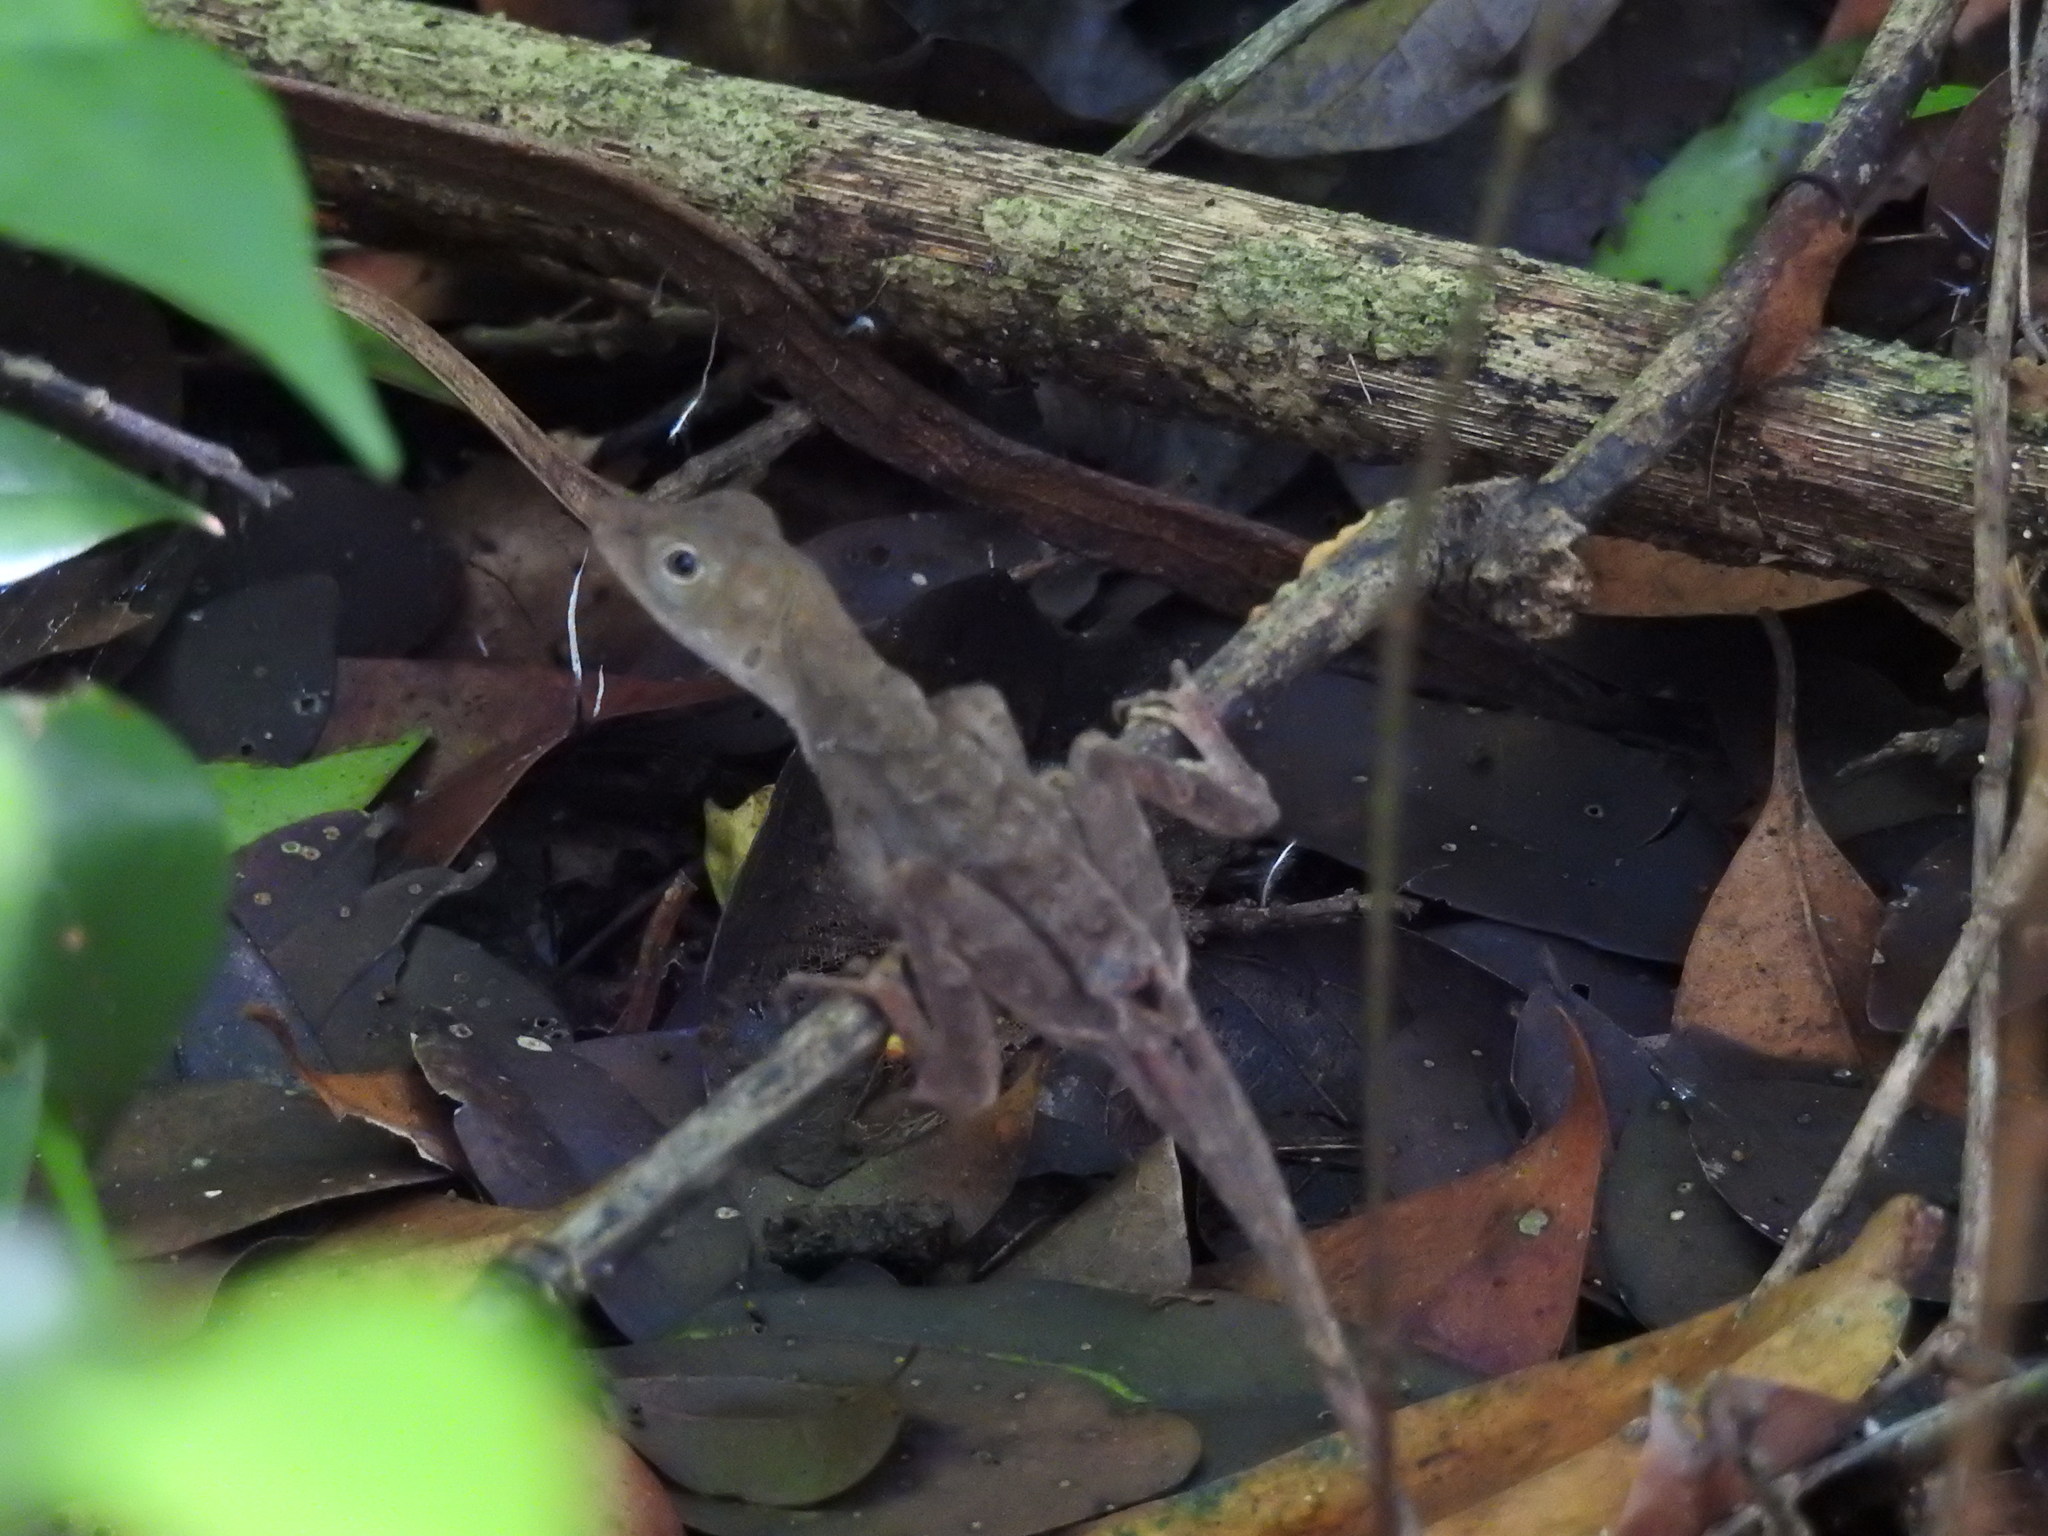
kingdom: Animalia
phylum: Chordata
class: Squamata
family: Dactyloidae
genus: Anolis
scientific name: Anolis tropidonotus
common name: Greater scaly anole
